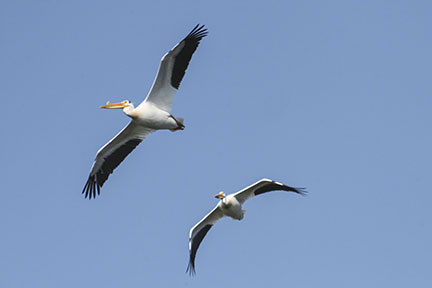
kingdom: Animalia
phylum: Chordata
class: Aves
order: Pelecaniformes
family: Pelecanidae
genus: Pelecanus
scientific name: Pelecanus erythrorhynchos
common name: American white pelican
